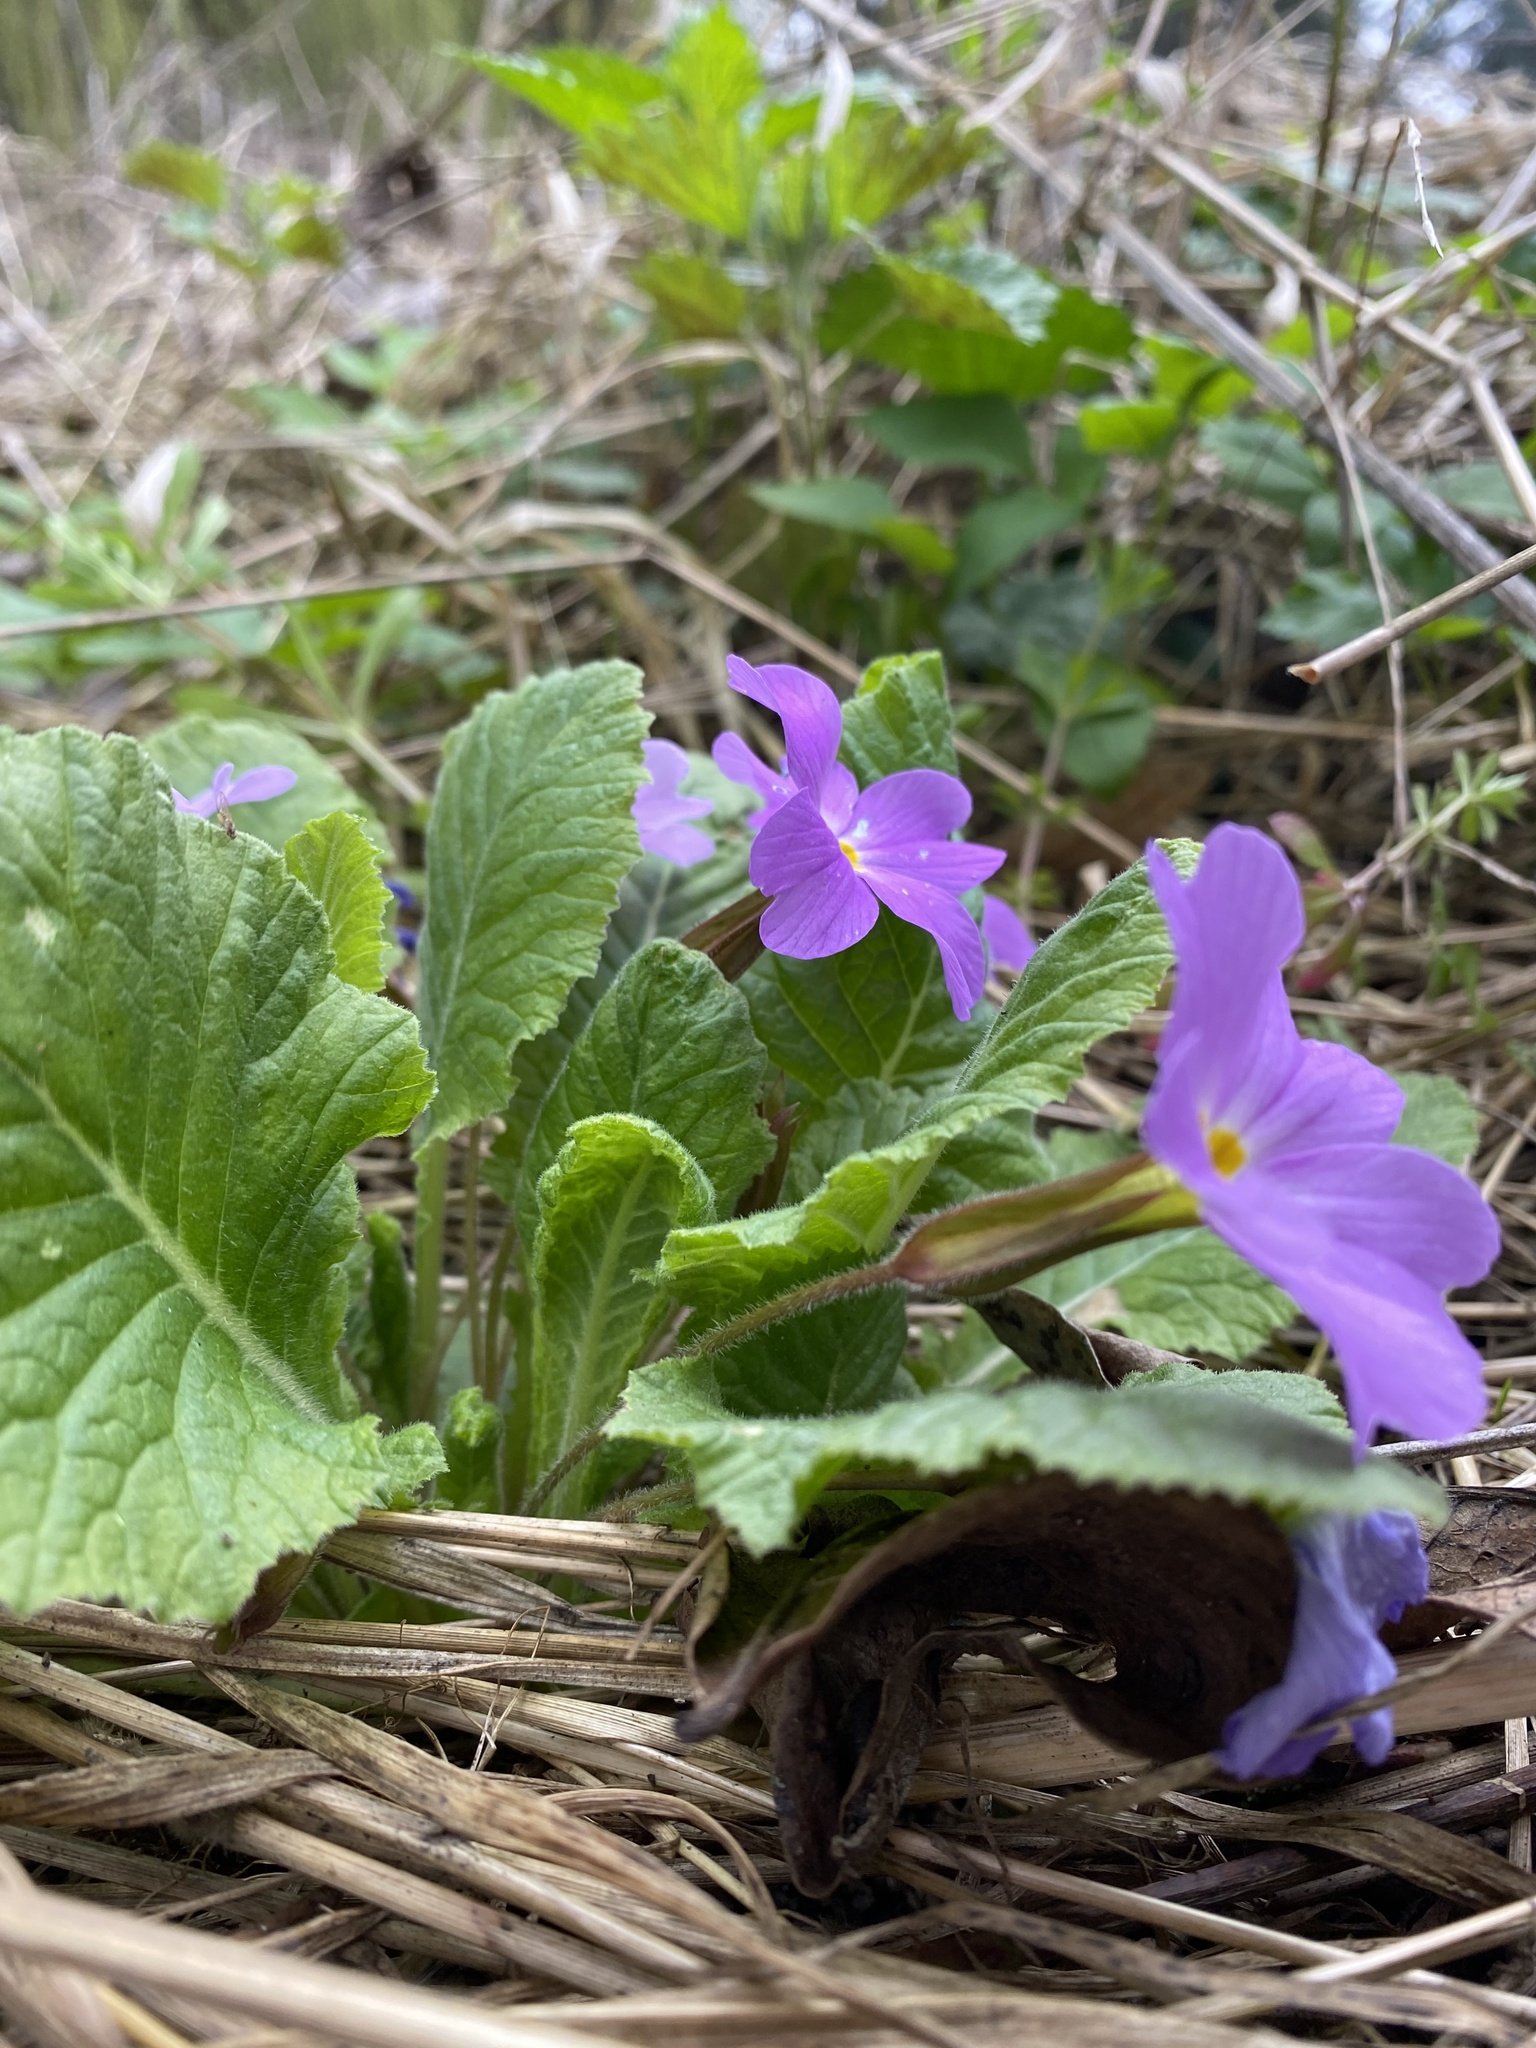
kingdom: Plantae
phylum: Tracheophyta
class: Magnoliopsida
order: Ericales
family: Primulaceae
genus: Primula
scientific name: Primula vulgaris
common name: Primrose
